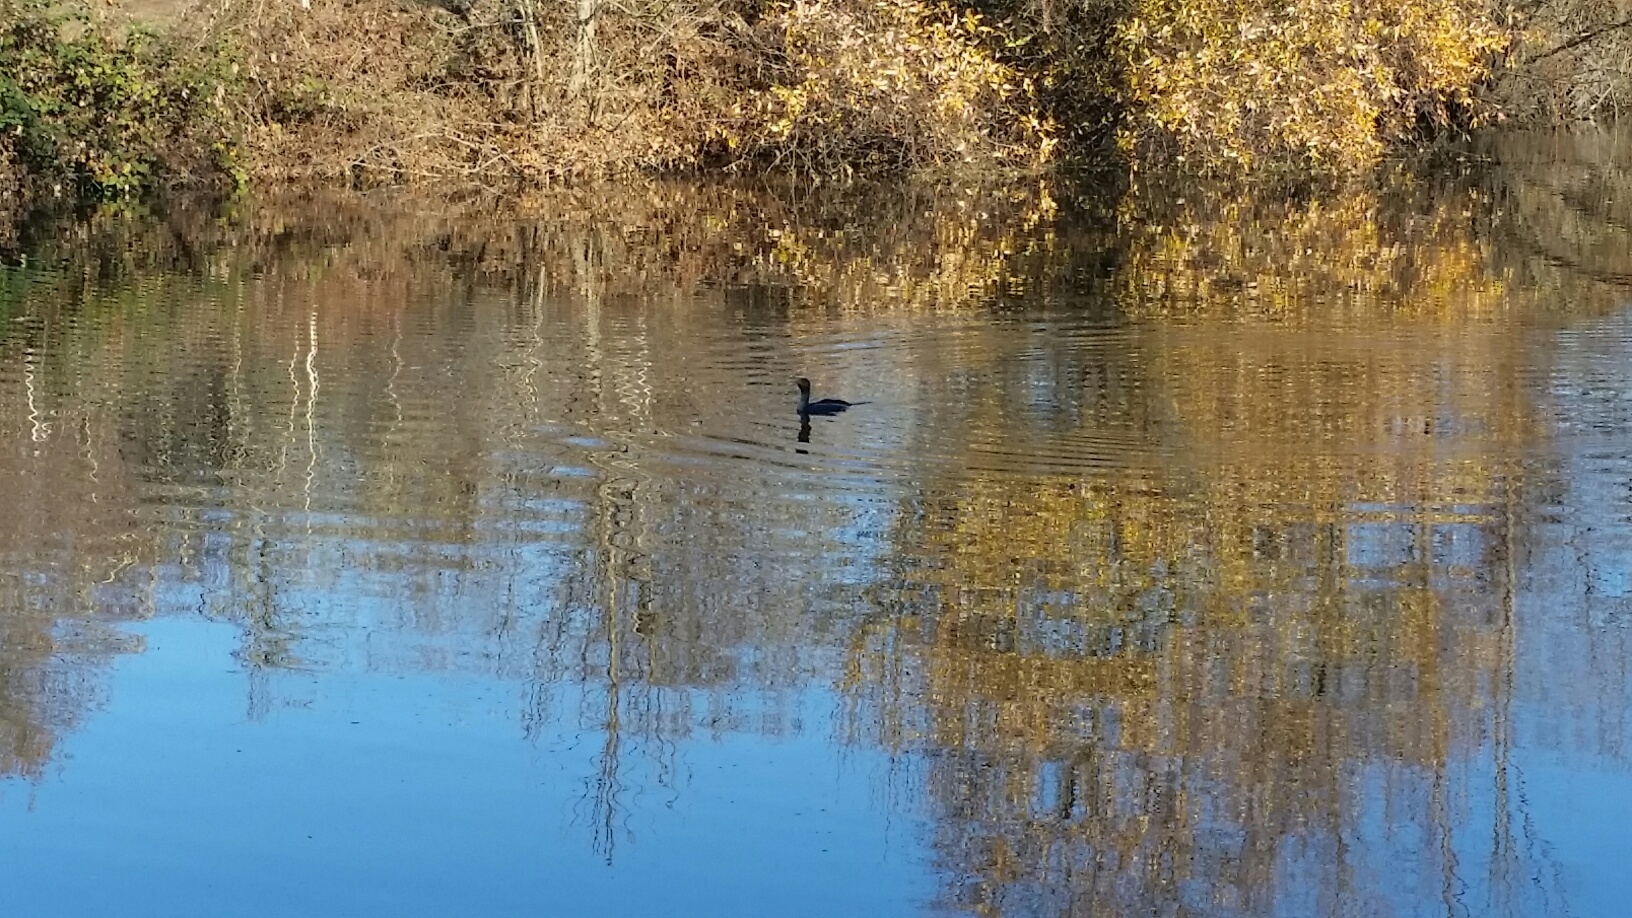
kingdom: Animalia
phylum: Chordata
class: Aves
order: Suliformes
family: Phalacrocoracidae
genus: Phalacrocorax
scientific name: Phalacrocorax auritus
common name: Double-crested cormorant
